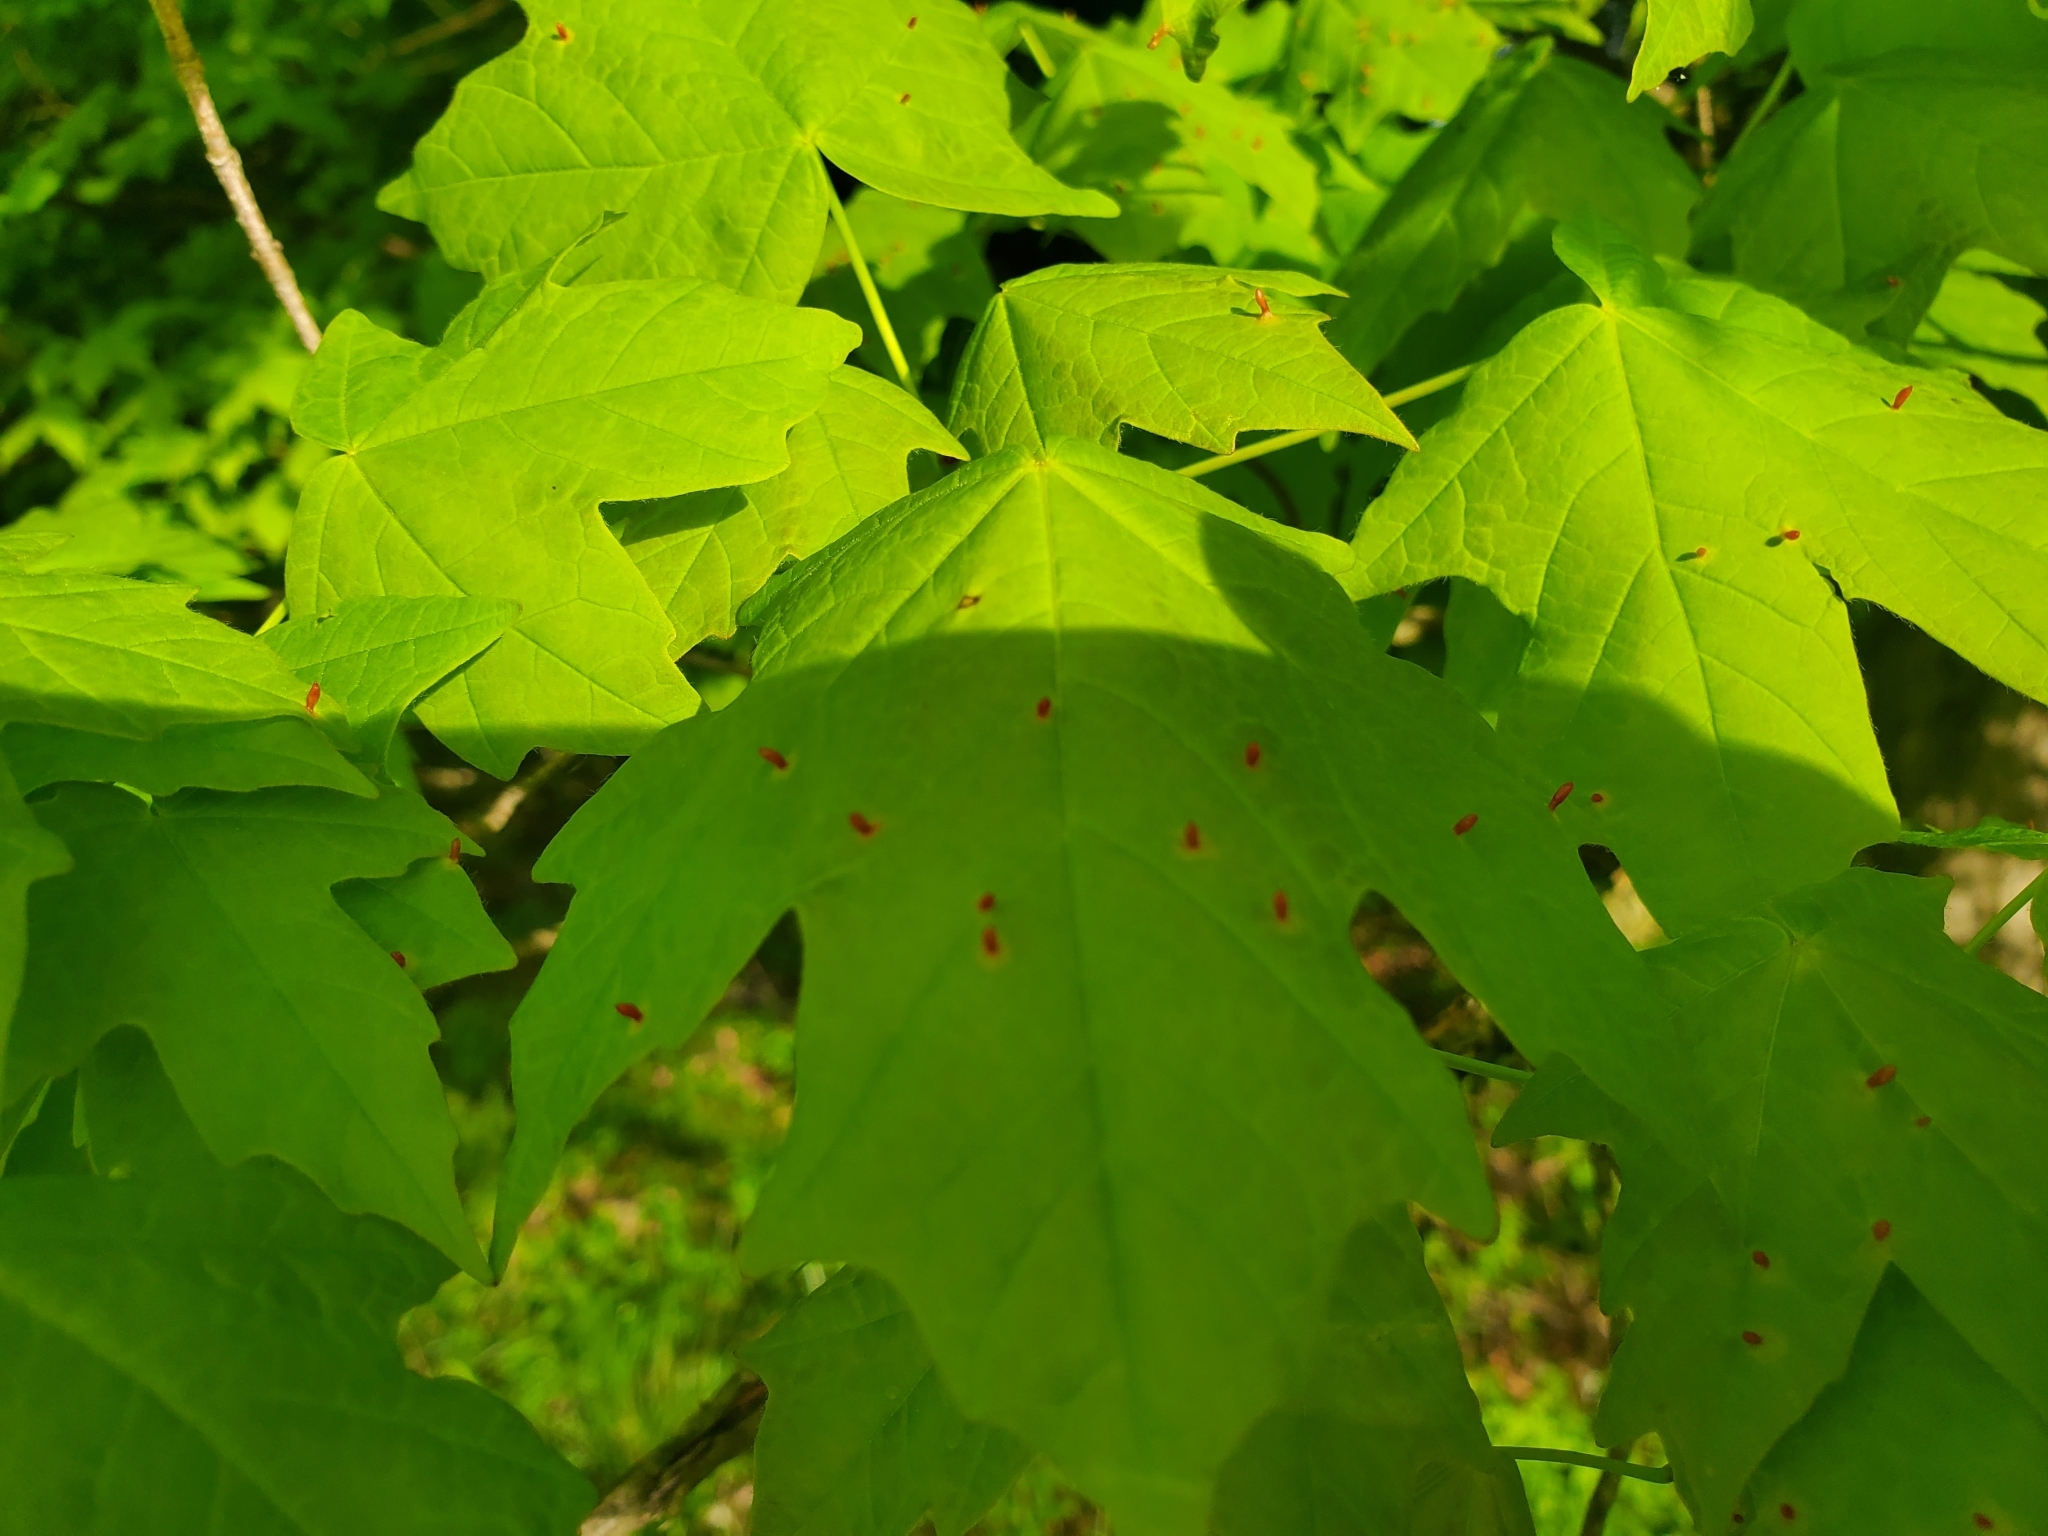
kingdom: Animalia
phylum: Arthropoda
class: Arachnida
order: Trombidiformes
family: Eriophyidae
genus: Vasates
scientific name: Vasates aceriscrumena
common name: Maple spindle gall mite
